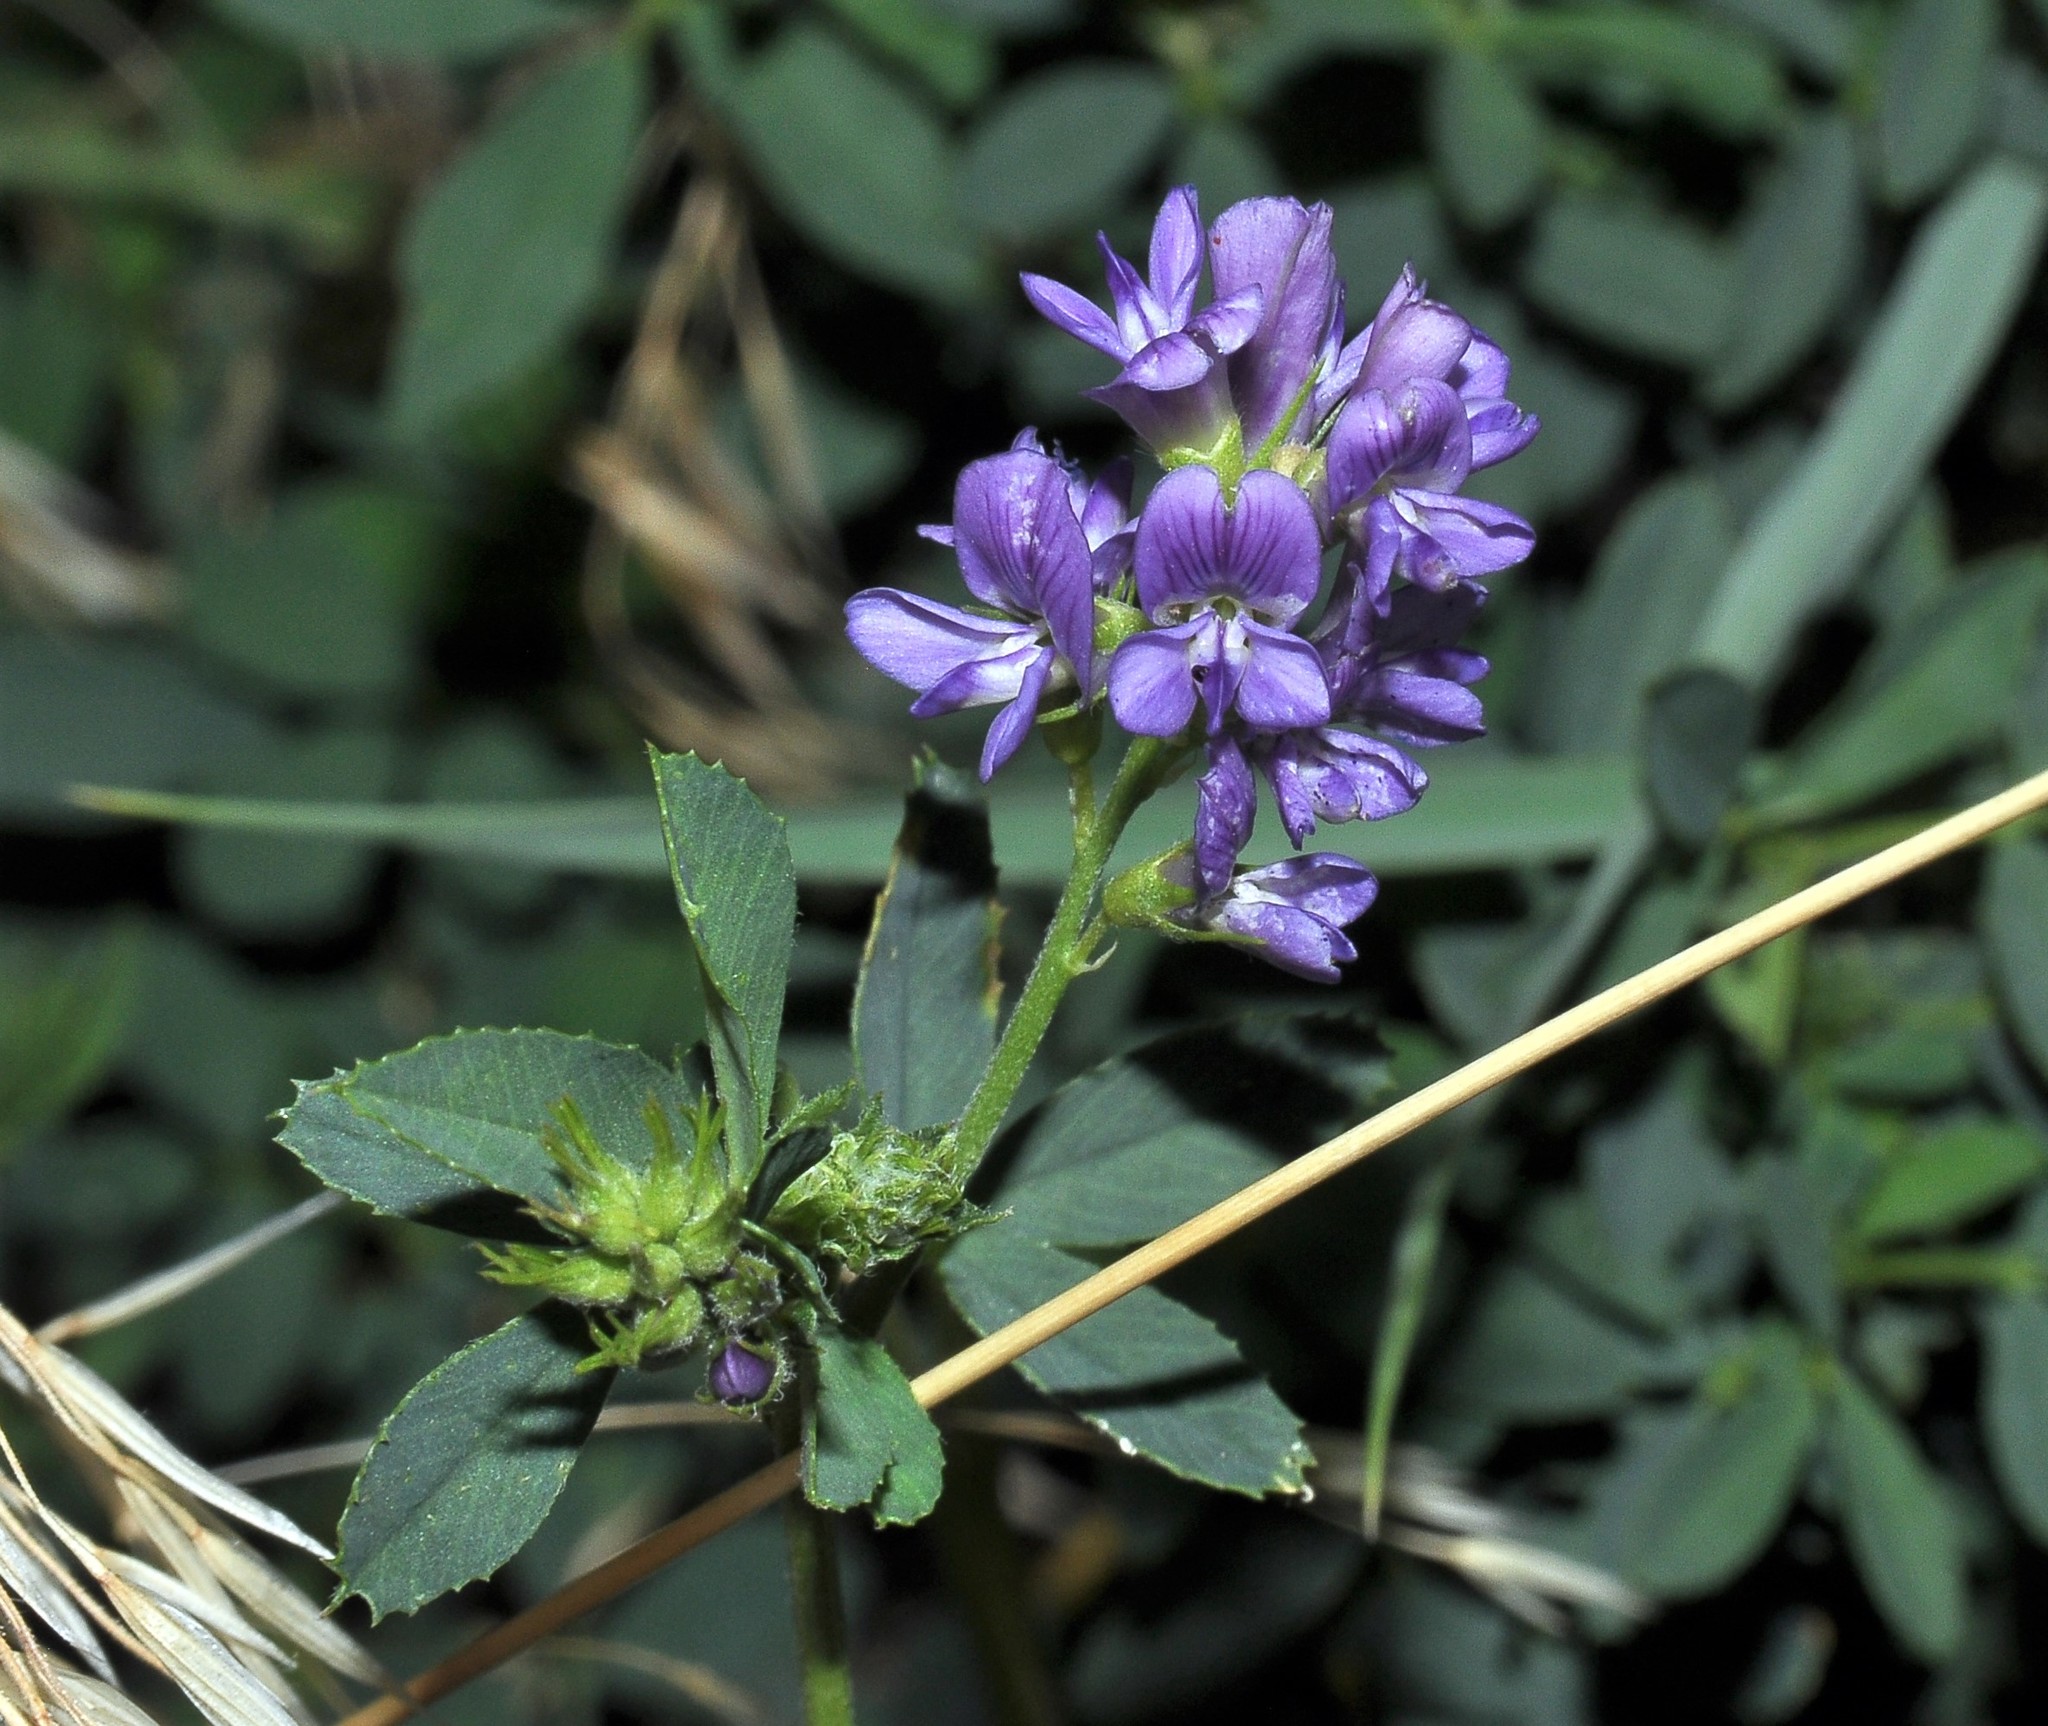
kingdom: Plantae
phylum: Tracheophyta
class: Magnoliopsida
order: Fabales
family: Fabaceae
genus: Medicago
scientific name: Medicago sativa
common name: Alfalfa
